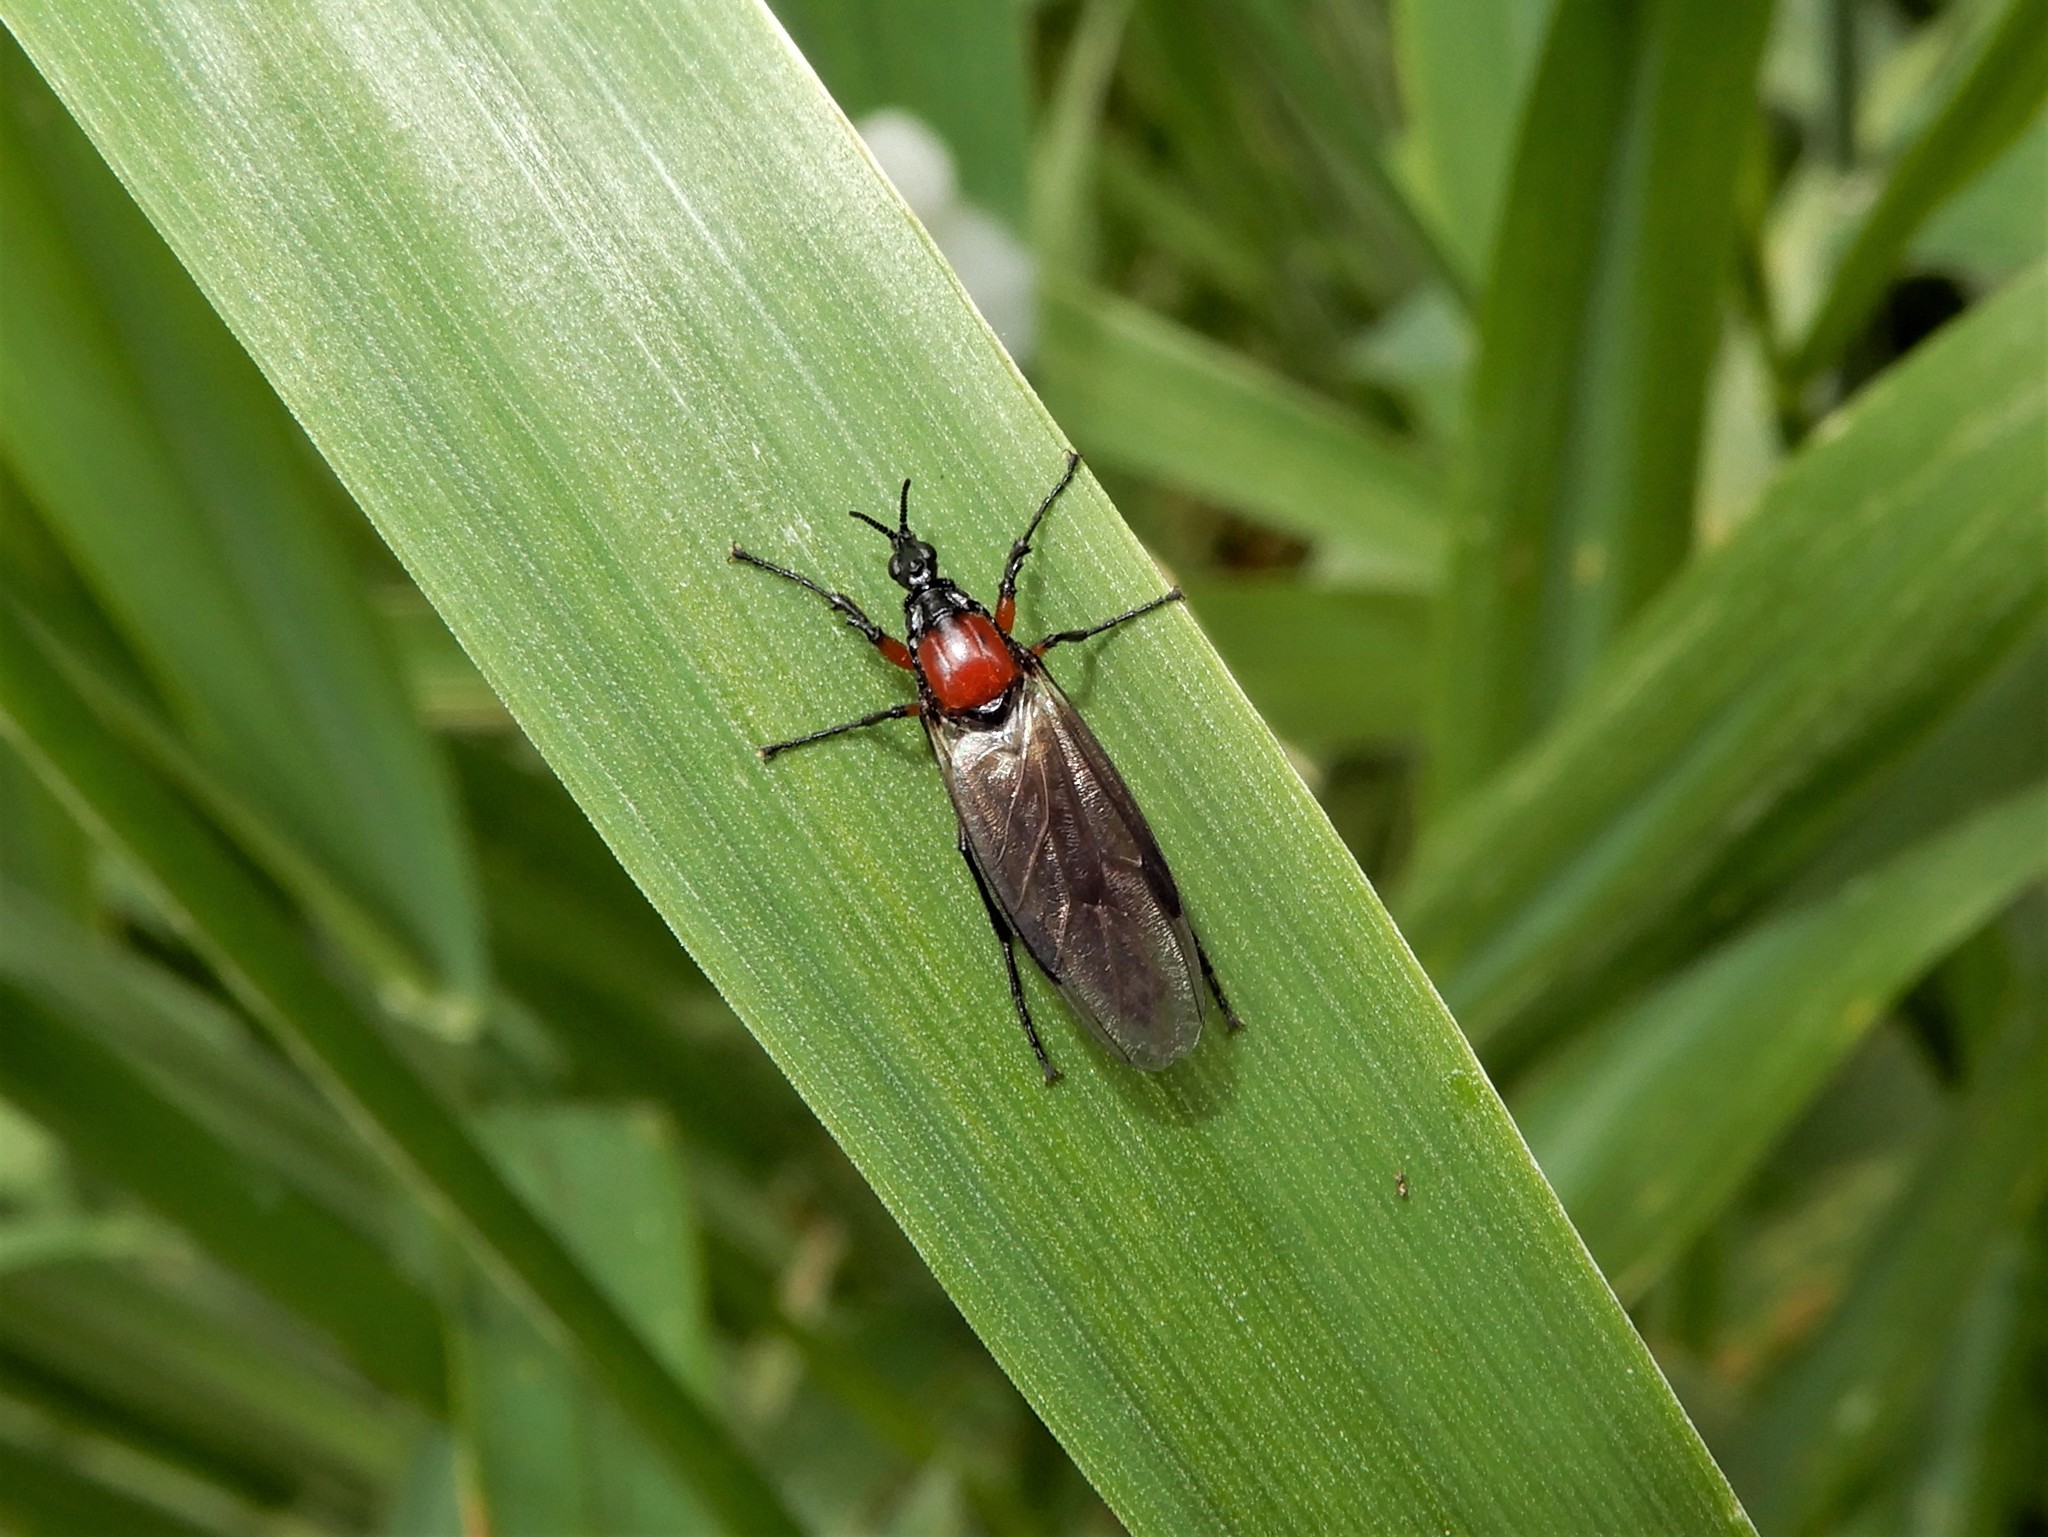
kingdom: Animalia
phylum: Arthropoda
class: Insecta
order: Diptera
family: Bibionidae
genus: Dilophus
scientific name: Dilophus nigrostigma
